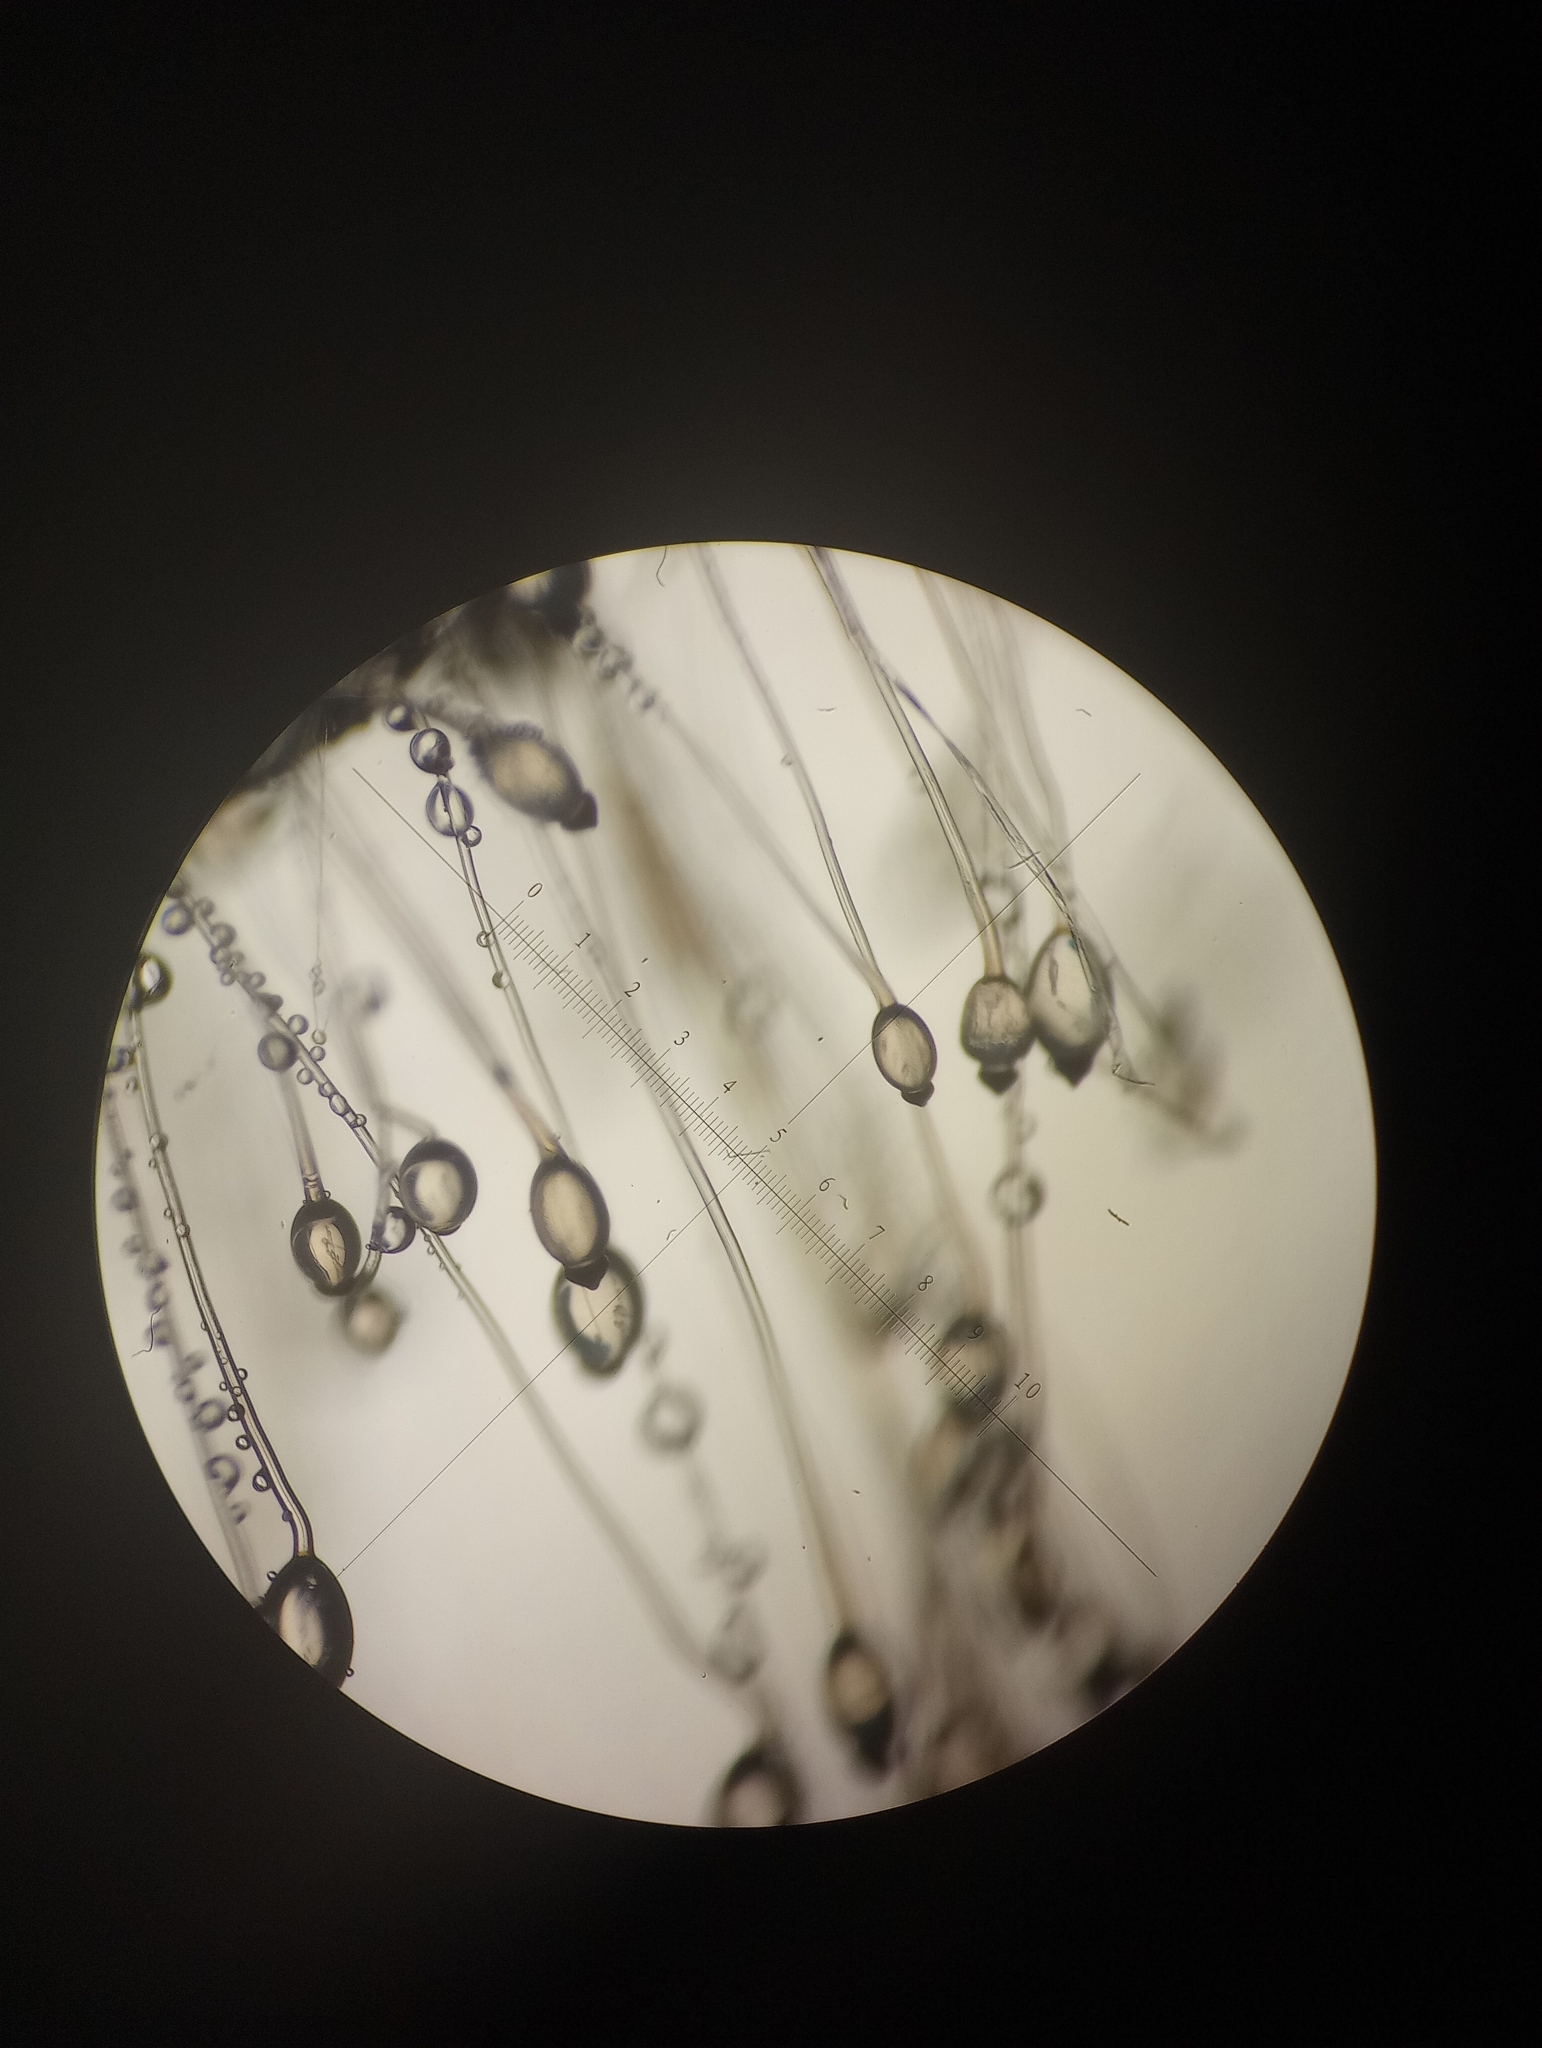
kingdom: Fungi
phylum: Mucoromycota
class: Mucoromycetes
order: Mucorales
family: Pilobolaceae
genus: Pilobolus
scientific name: Pilobolus umbonatus
